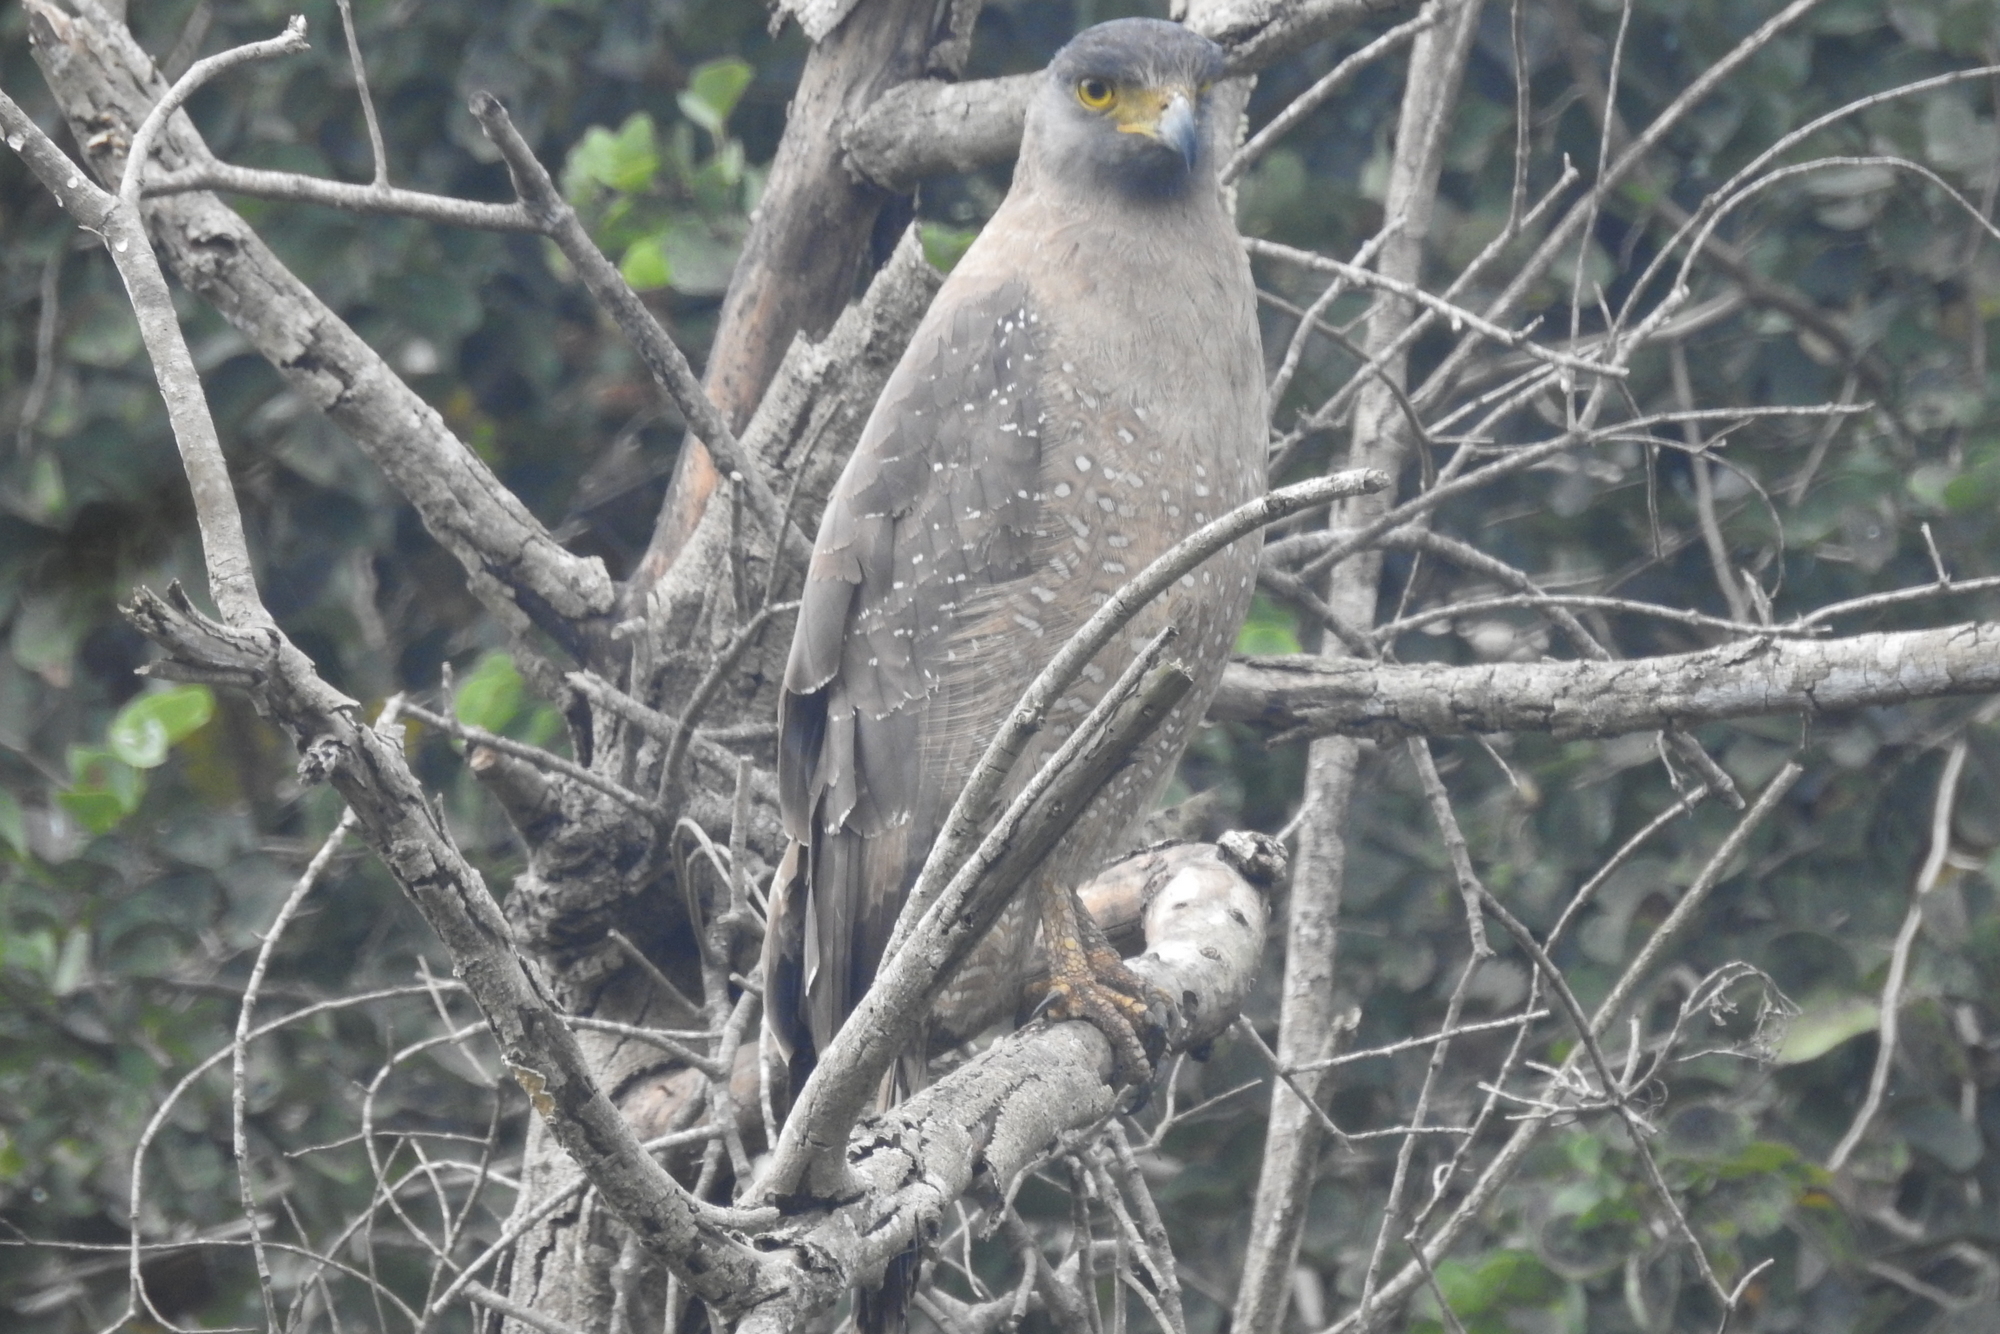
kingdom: Animalia
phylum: Chordata
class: Aves
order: Accipitriformes
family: Accipitridae
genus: Spilornis
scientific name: Spilornis cheela
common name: Crested serpent eagle
